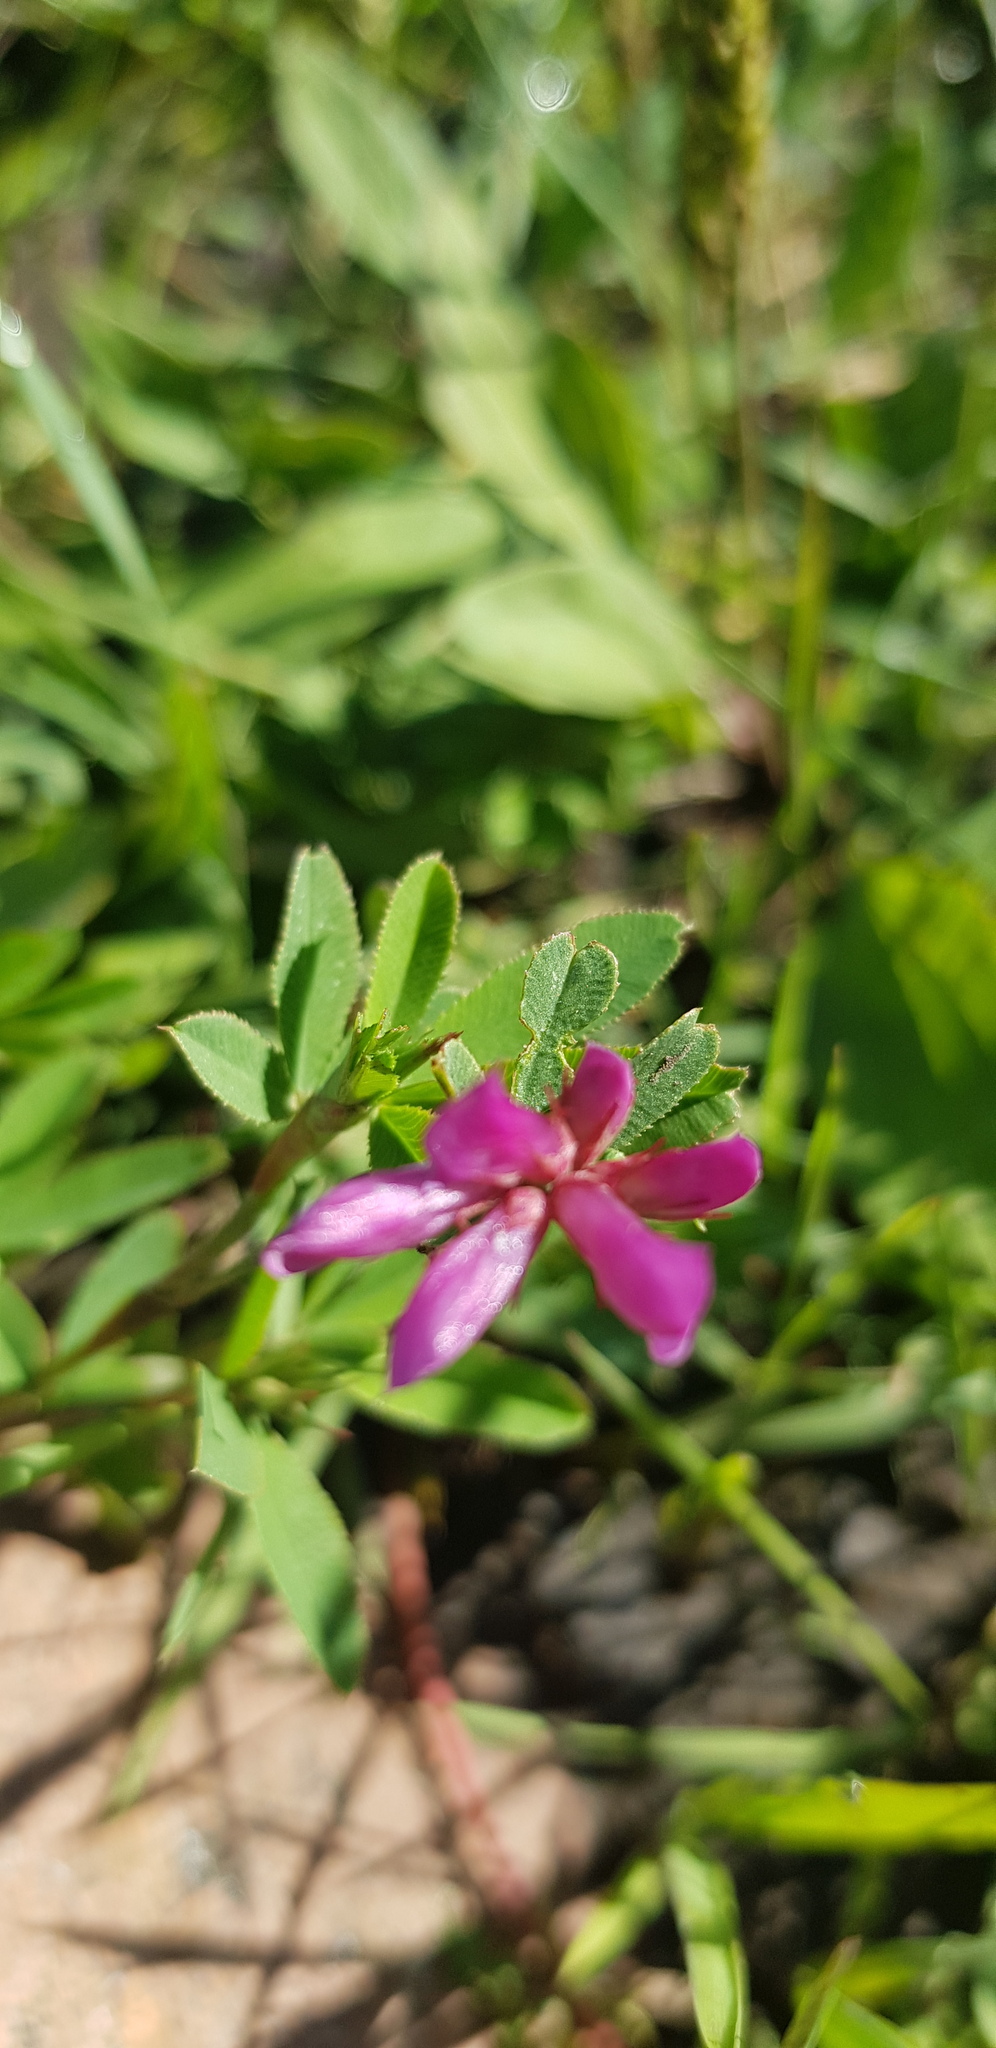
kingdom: Plantae
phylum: Tracheophyta
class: Magnoliopsida
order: Fabales
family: Fabaceae
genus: Trifolium
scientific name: Trifolium lupinaster
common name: Lupine clover
